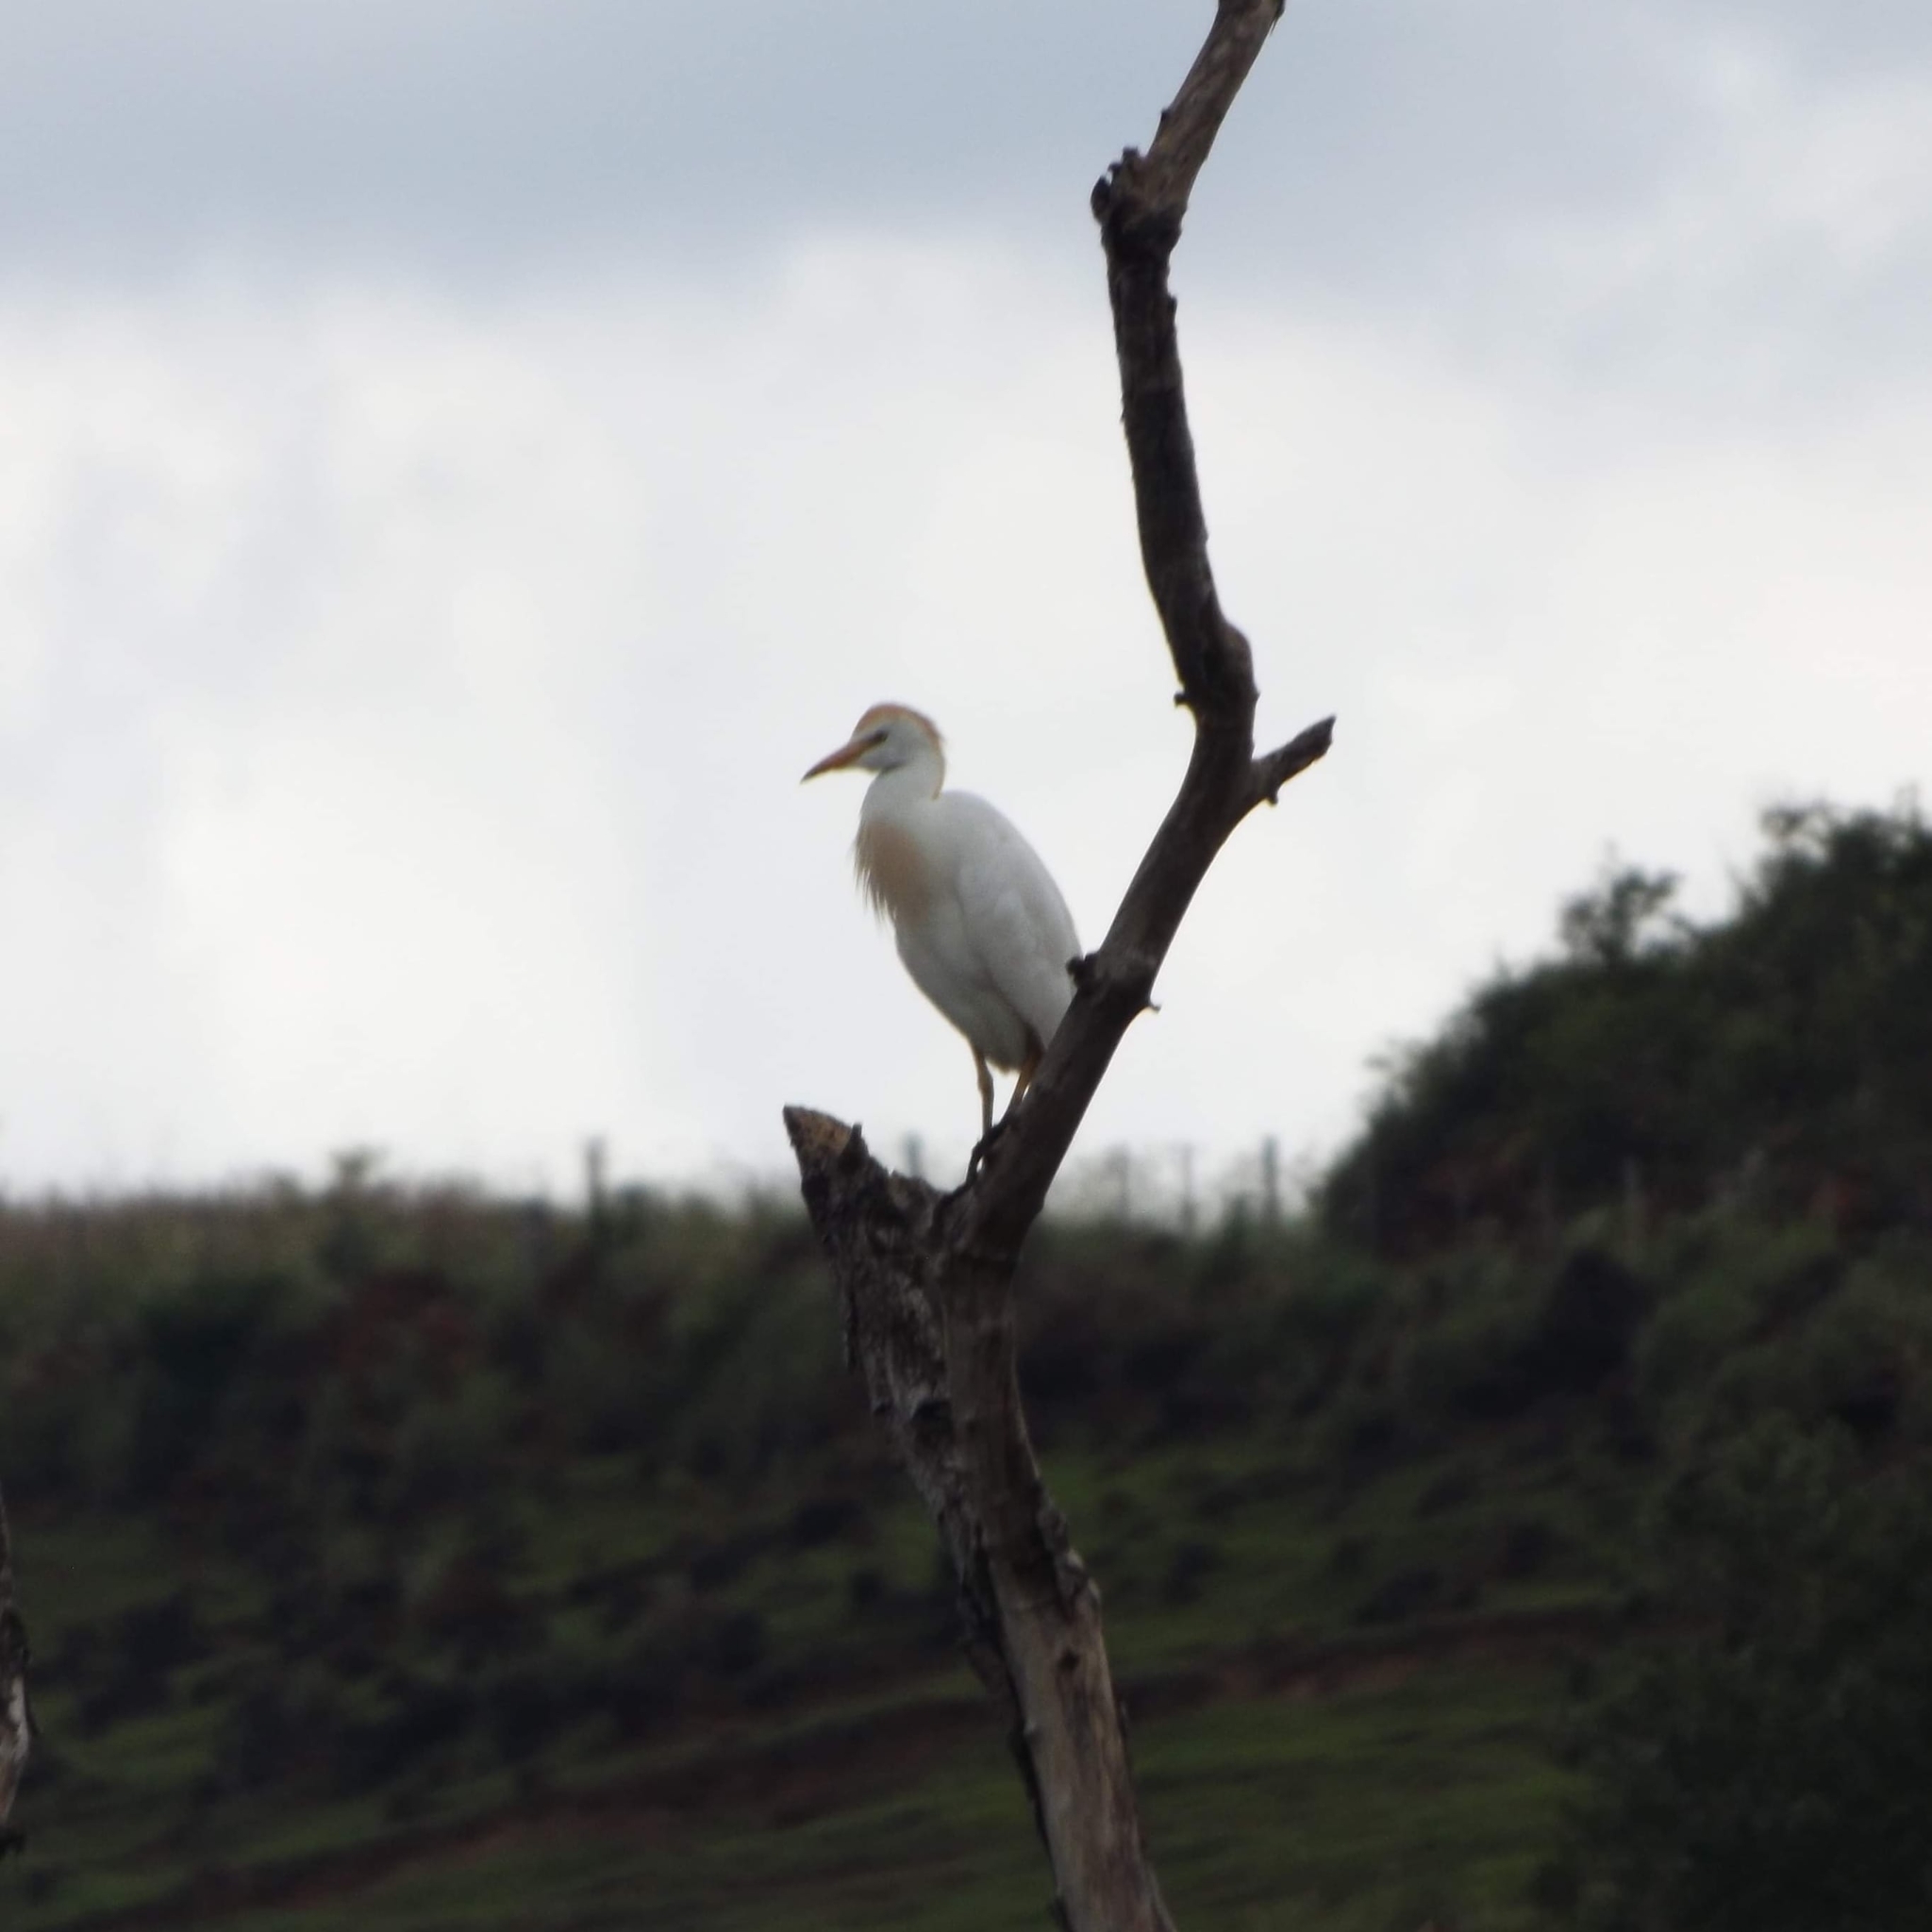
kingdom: Animalia
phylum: Chordata
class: Aves
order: Pelecaniformes
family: Ardeidae
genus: Bubulcus
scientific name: Bubulcus ibis
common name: Cattle egret
